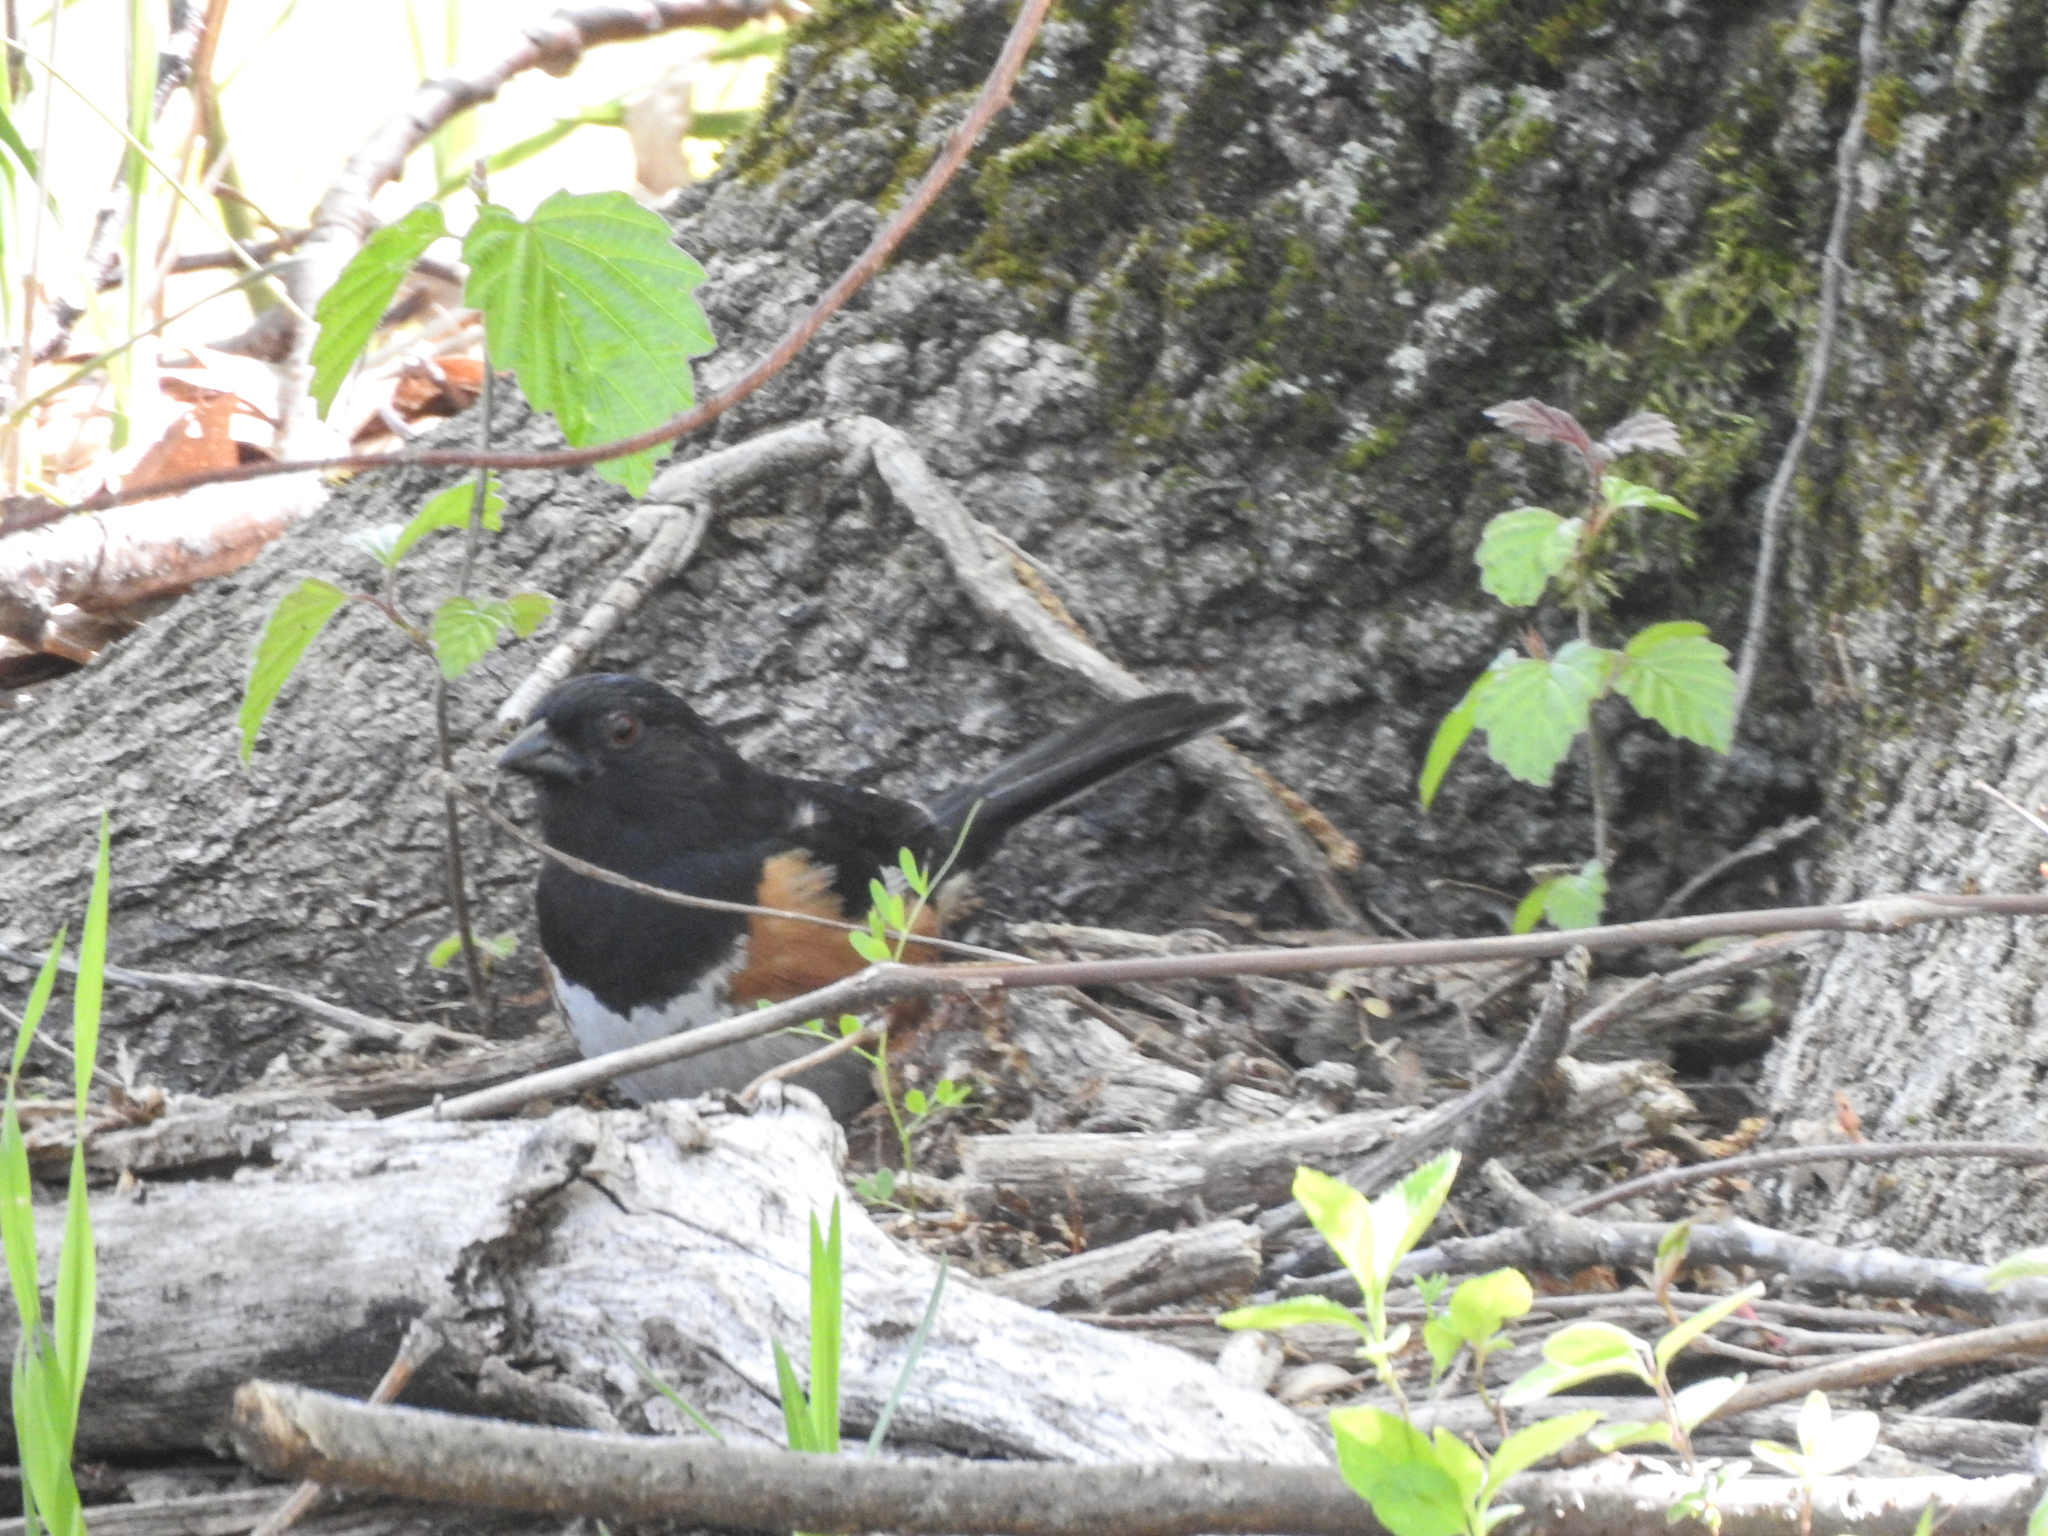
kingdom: Animalia
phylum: Chordata
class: Aves
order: Passeriformes
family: Passerellidae
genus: Pipilo
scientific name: Pipilo erythrophthalmus
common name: Eastern towhee
